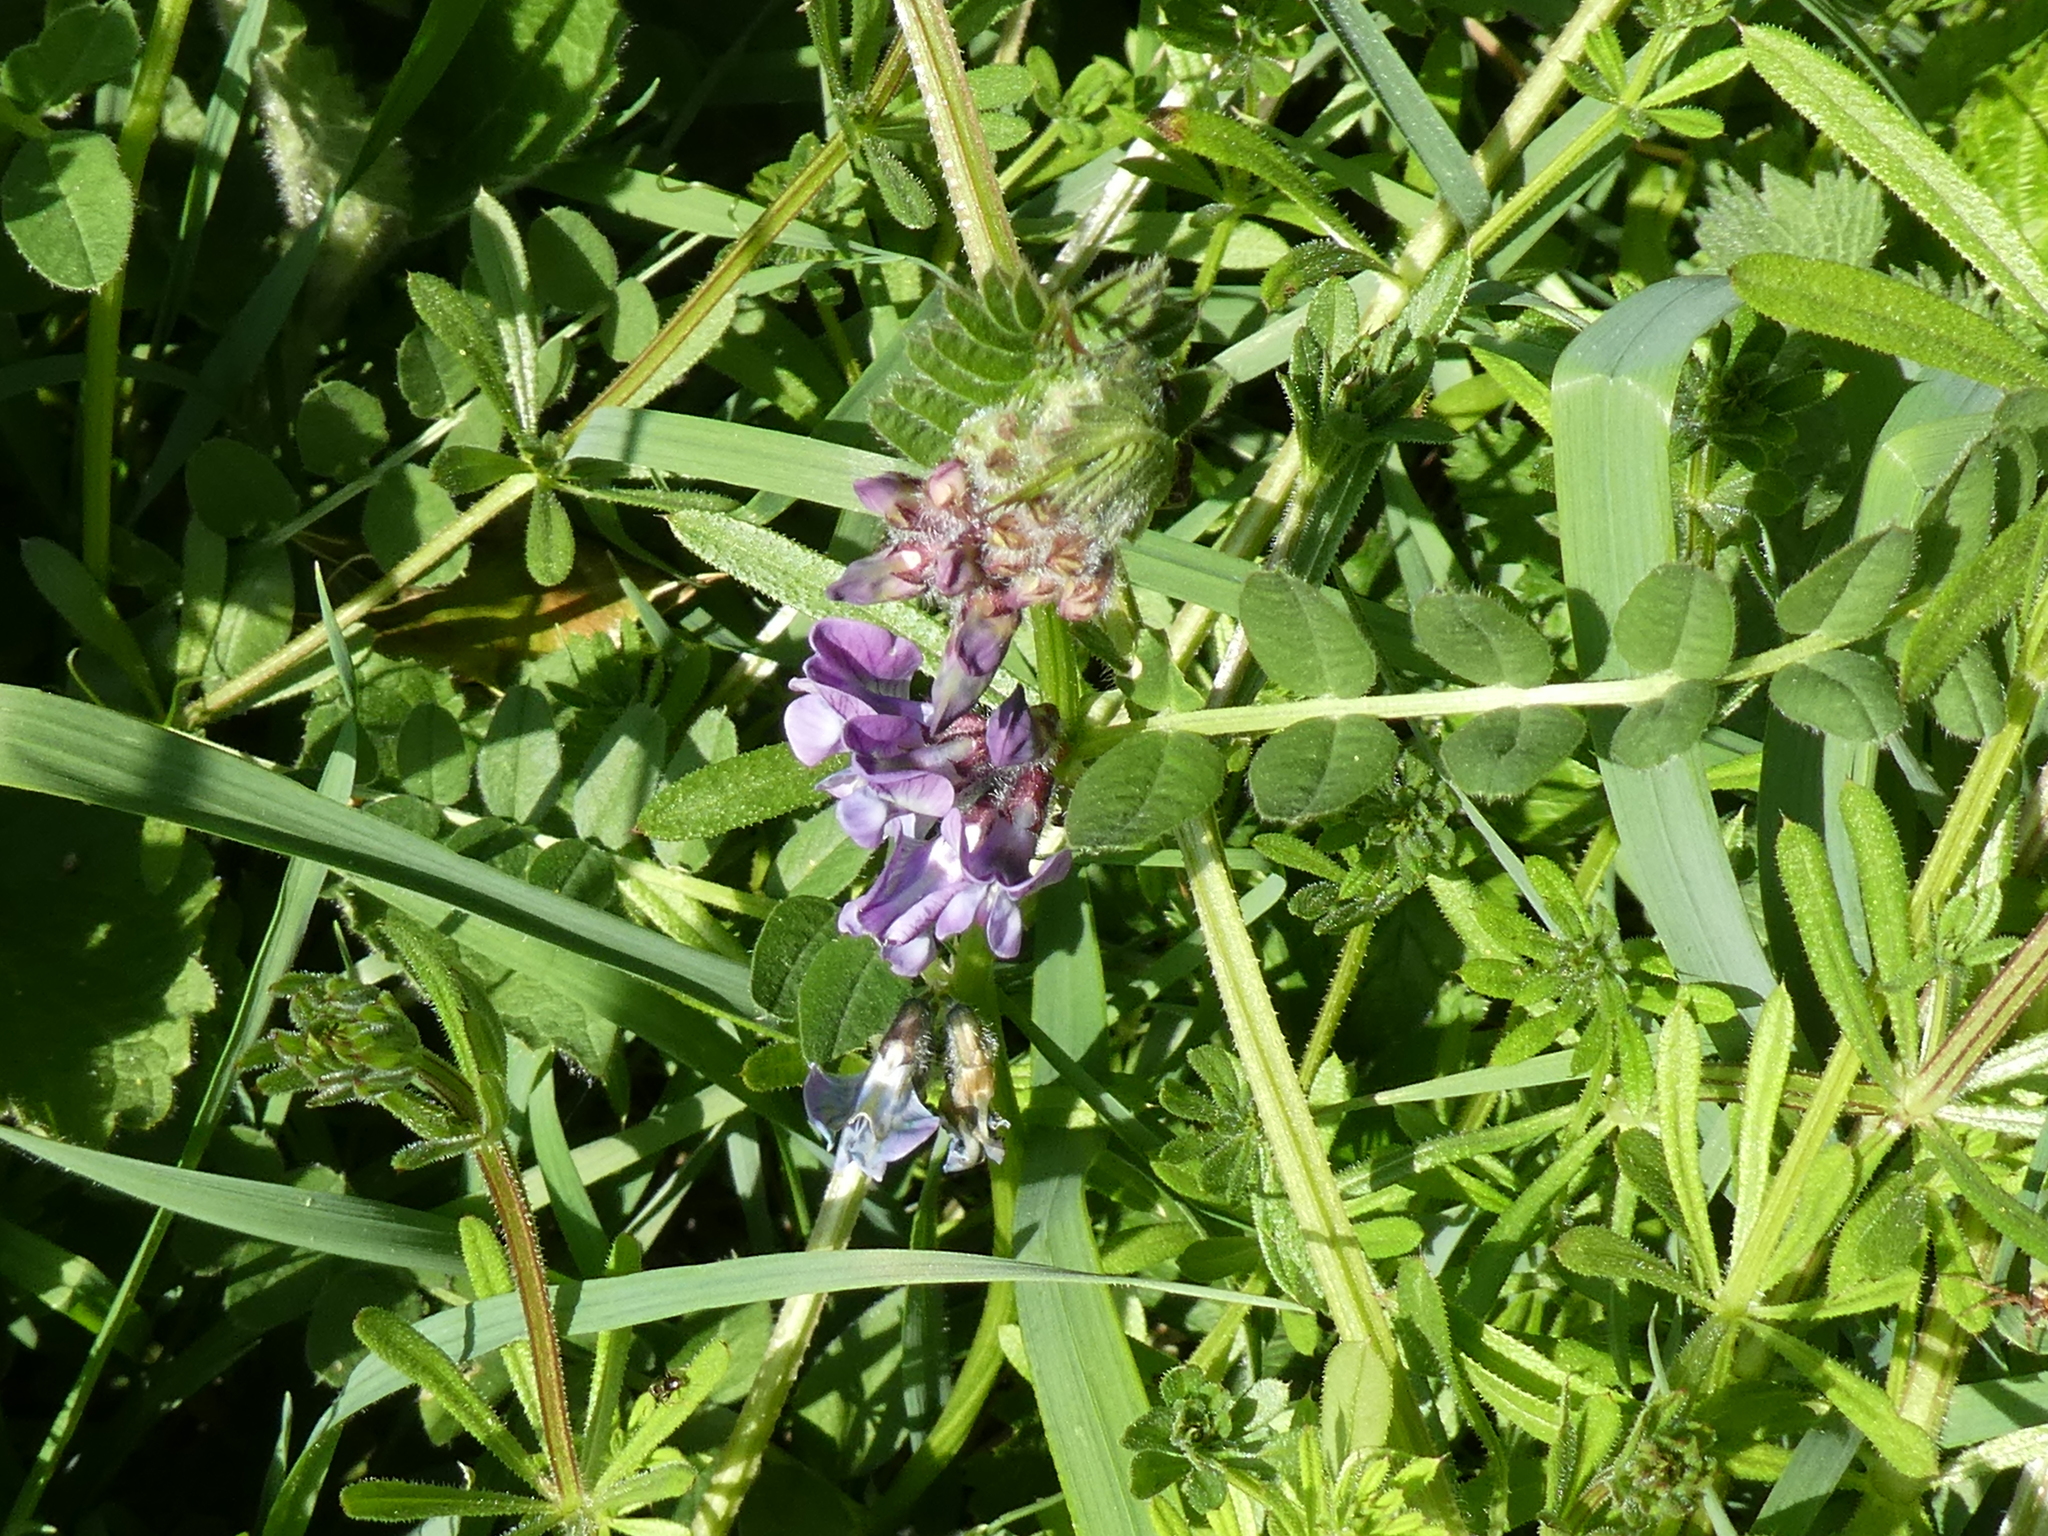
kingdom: Plantae
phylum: Tracheophyta
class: Magnoliopsida
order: Fabales
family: Fabaceae
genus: Vicia
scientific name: Vicia sepium
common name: Bush vetch
